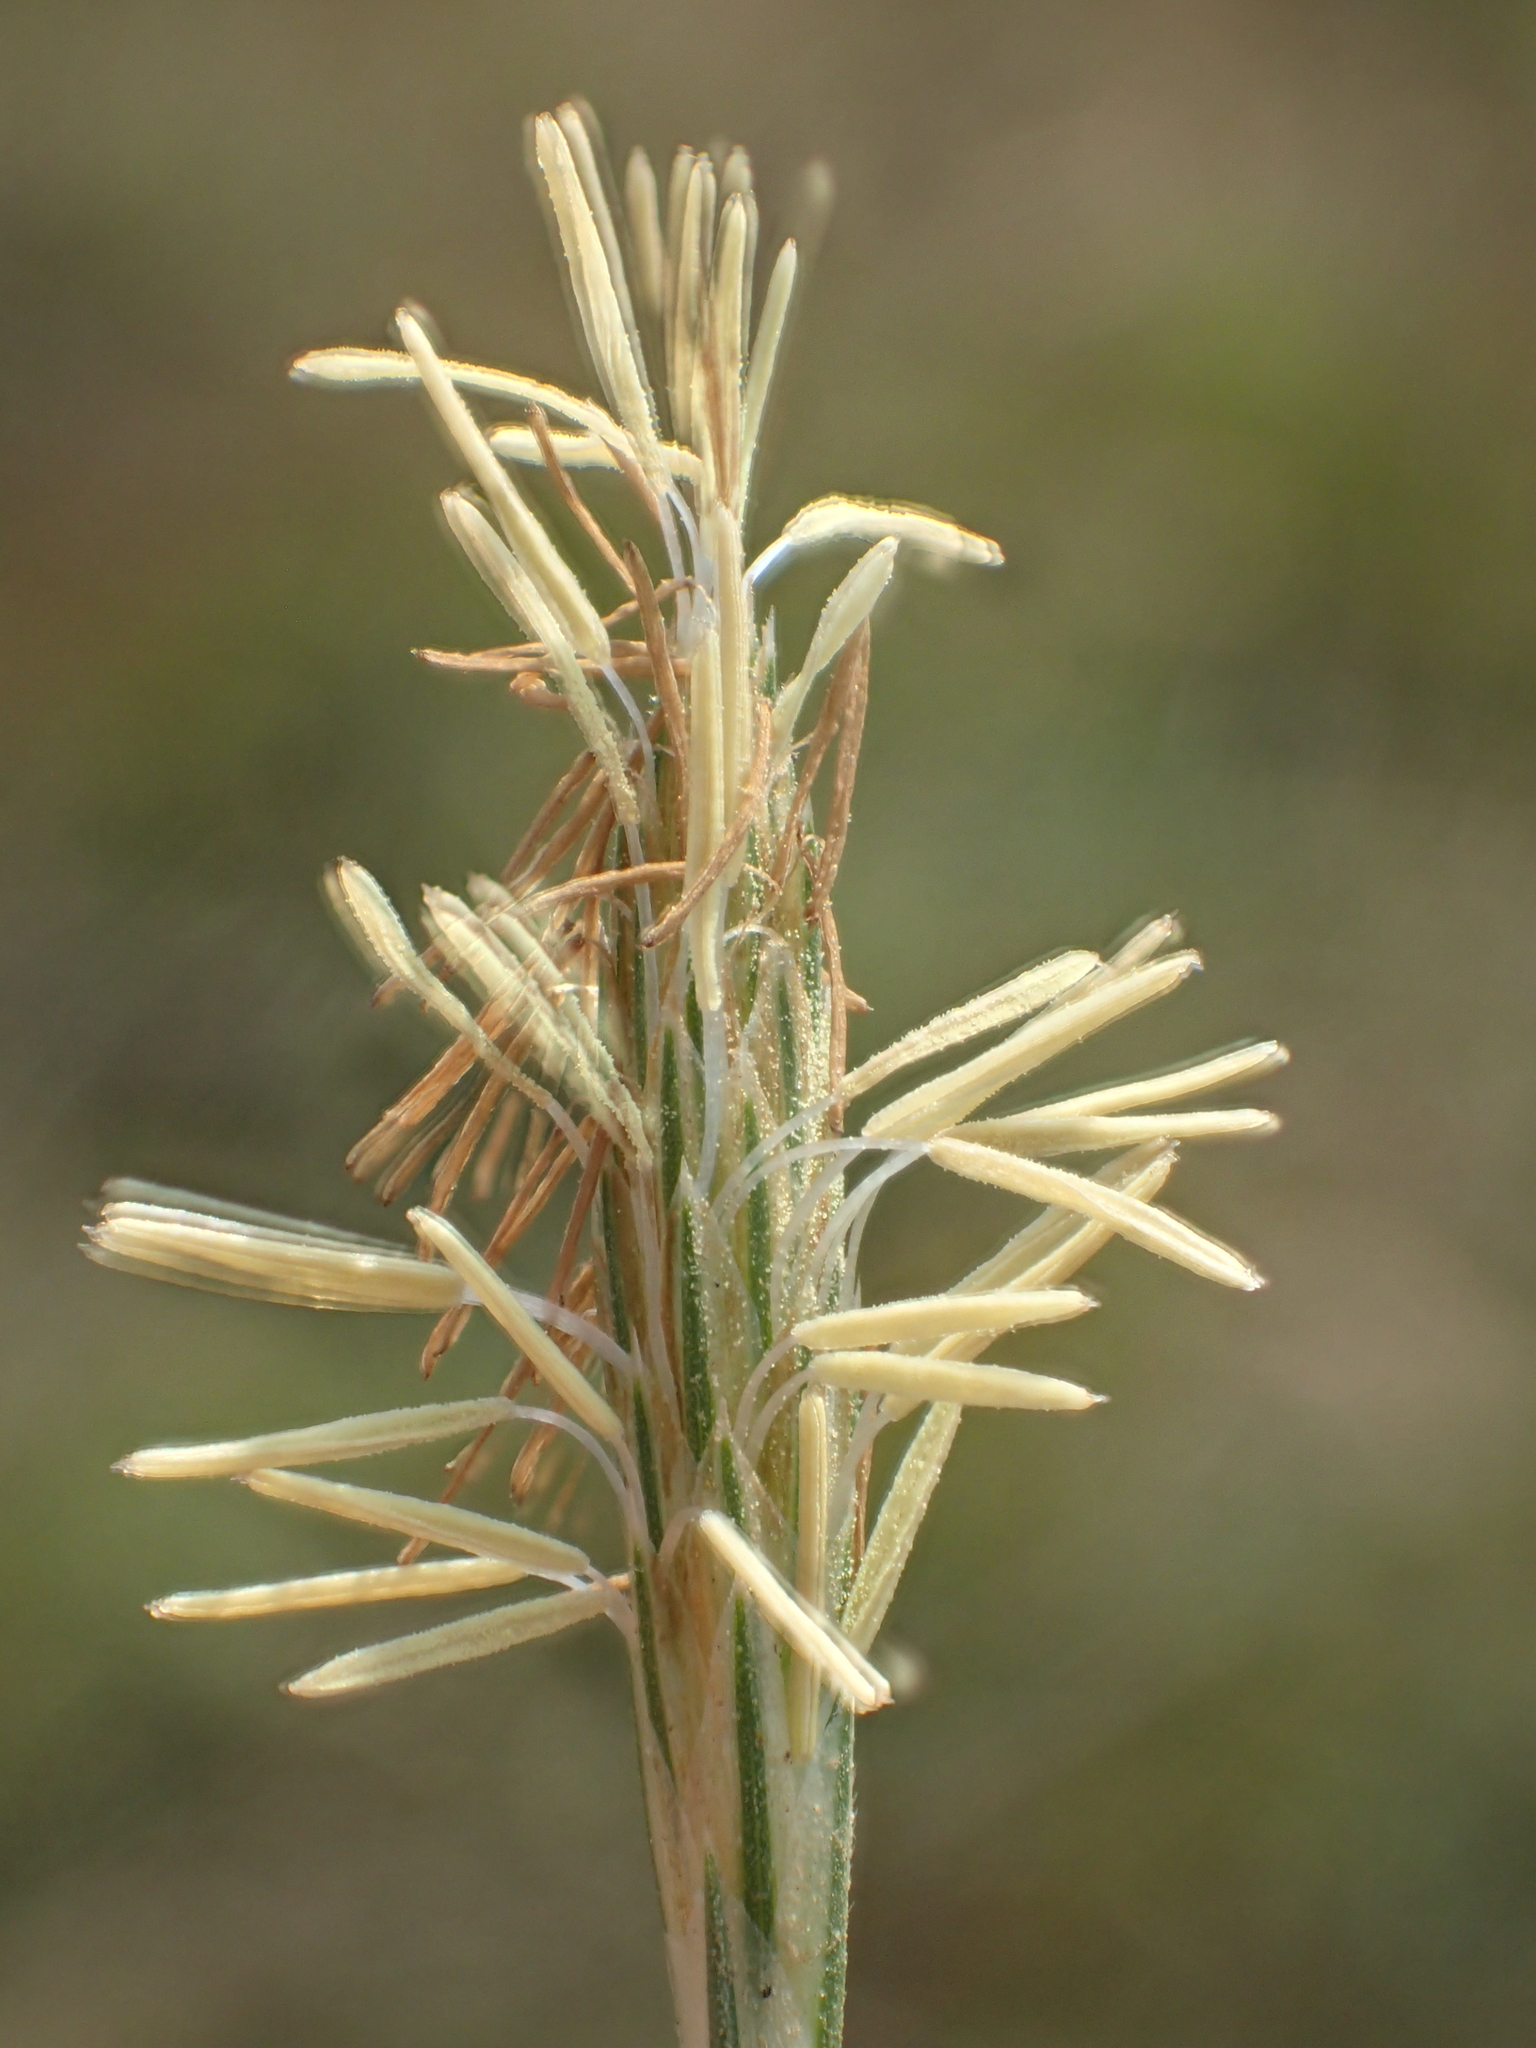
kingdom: Plantae
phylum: Tracheophyta
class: Liliopsida
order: Poales
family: Cyperaceae
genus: Carex
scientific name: Carex sampsonii
